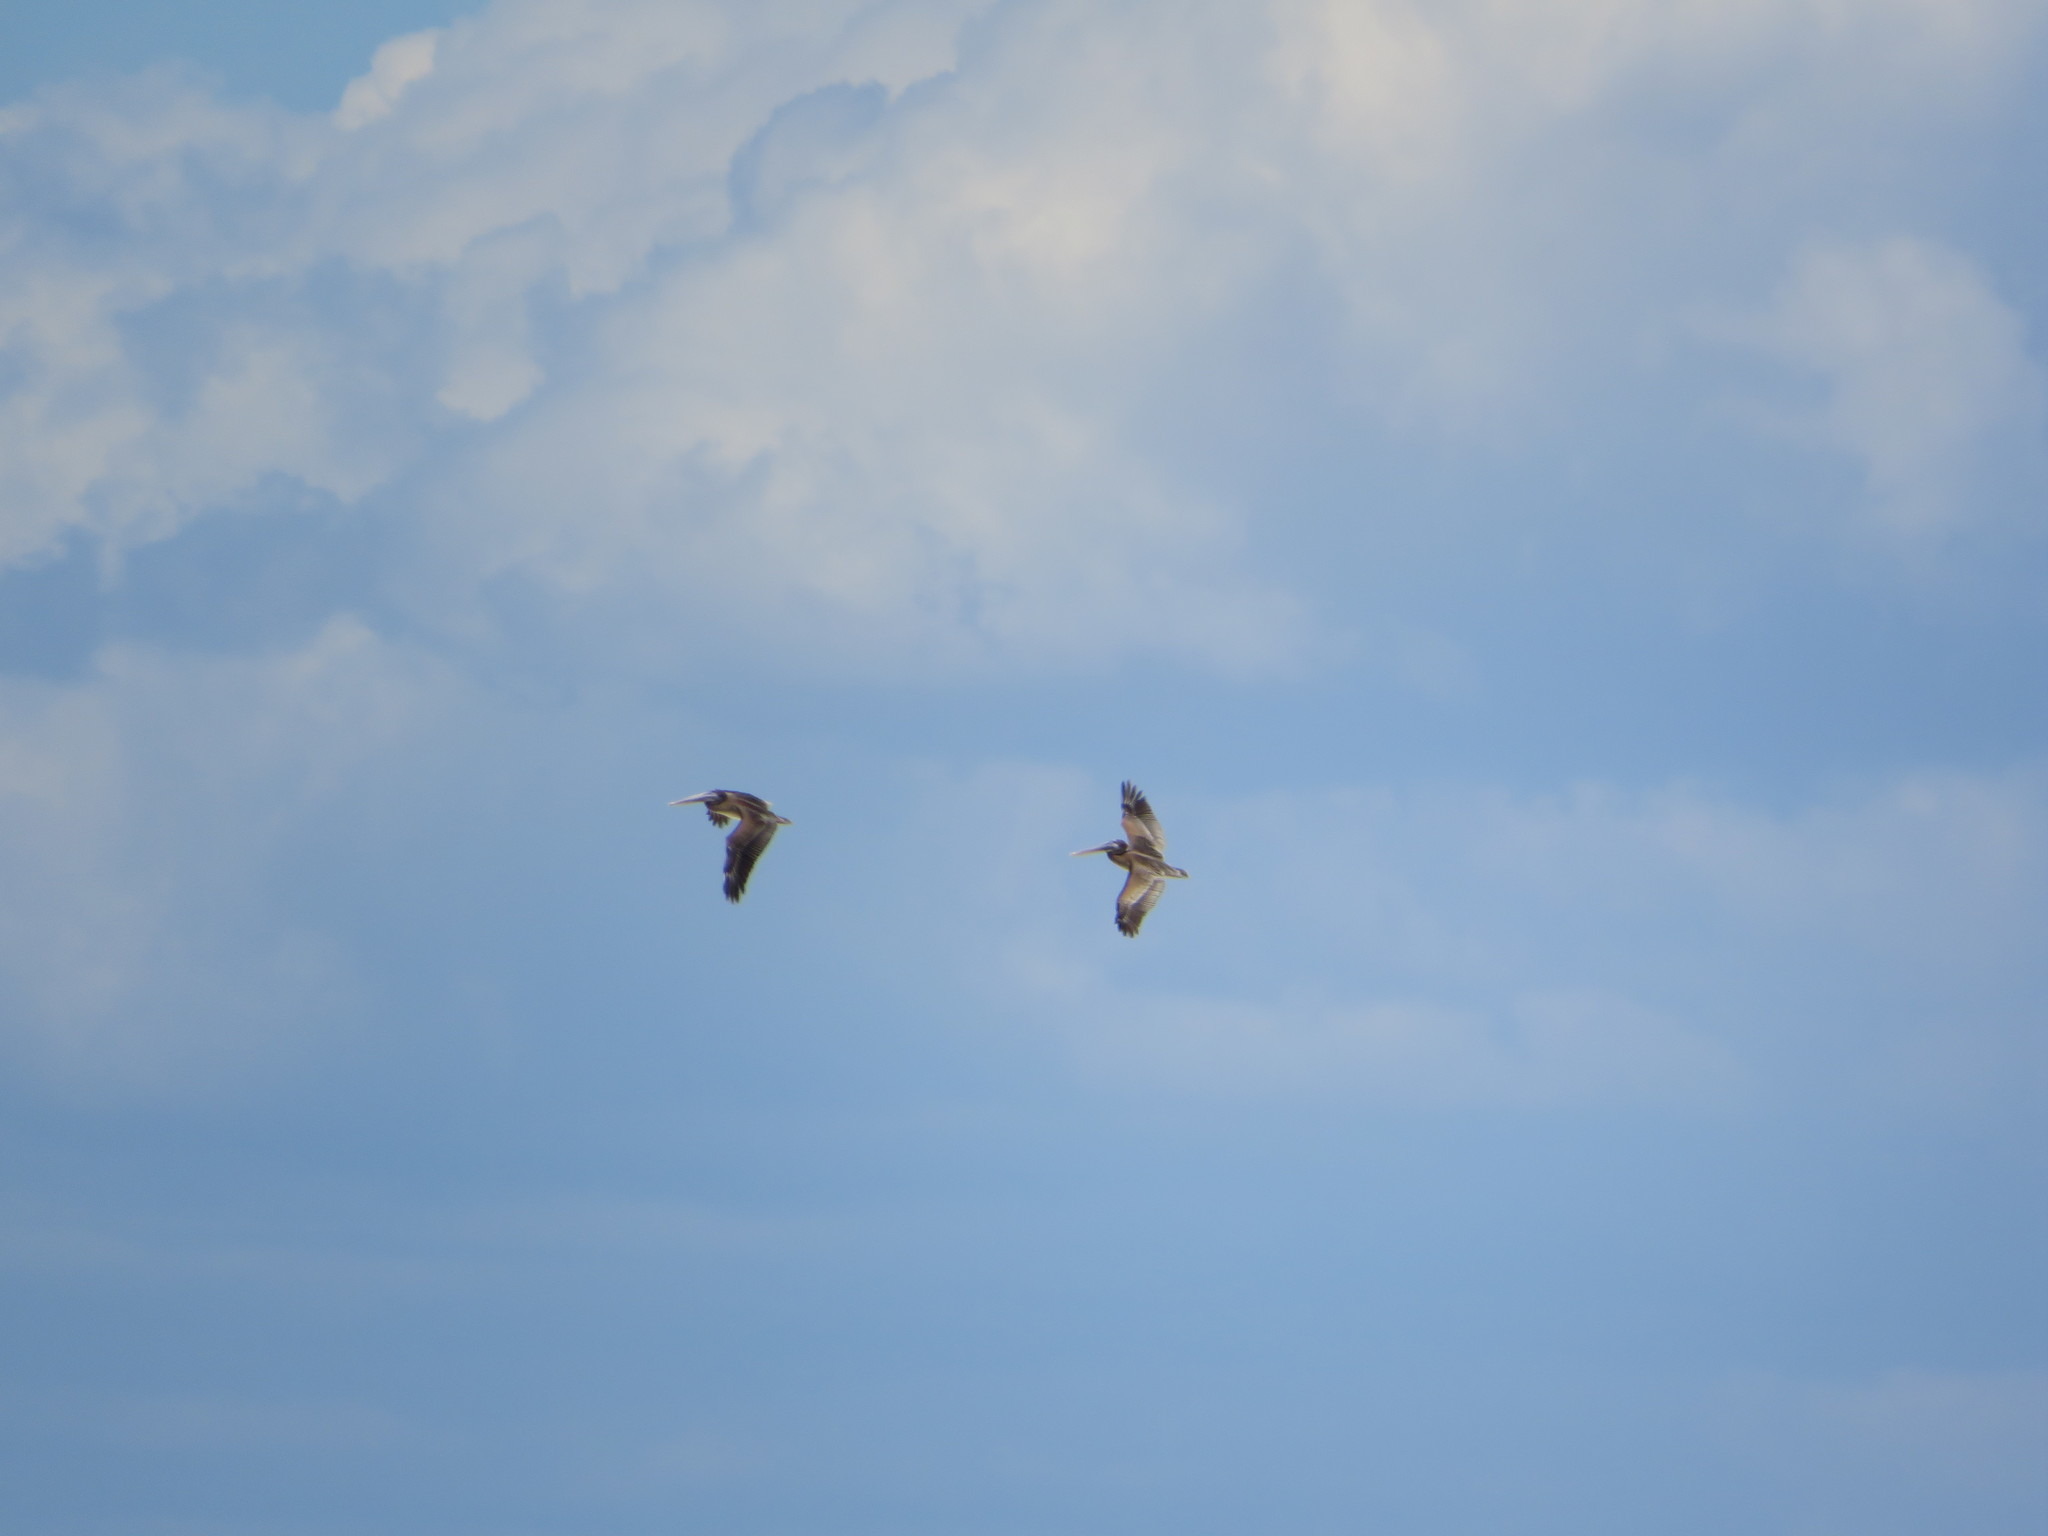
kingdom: Animalia
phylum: Chordata
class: Aves
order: Pelecaniformes
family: Pelecanidae
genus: Pelecanus
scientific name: Pelecanus occidentalis
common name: Brown pelican
